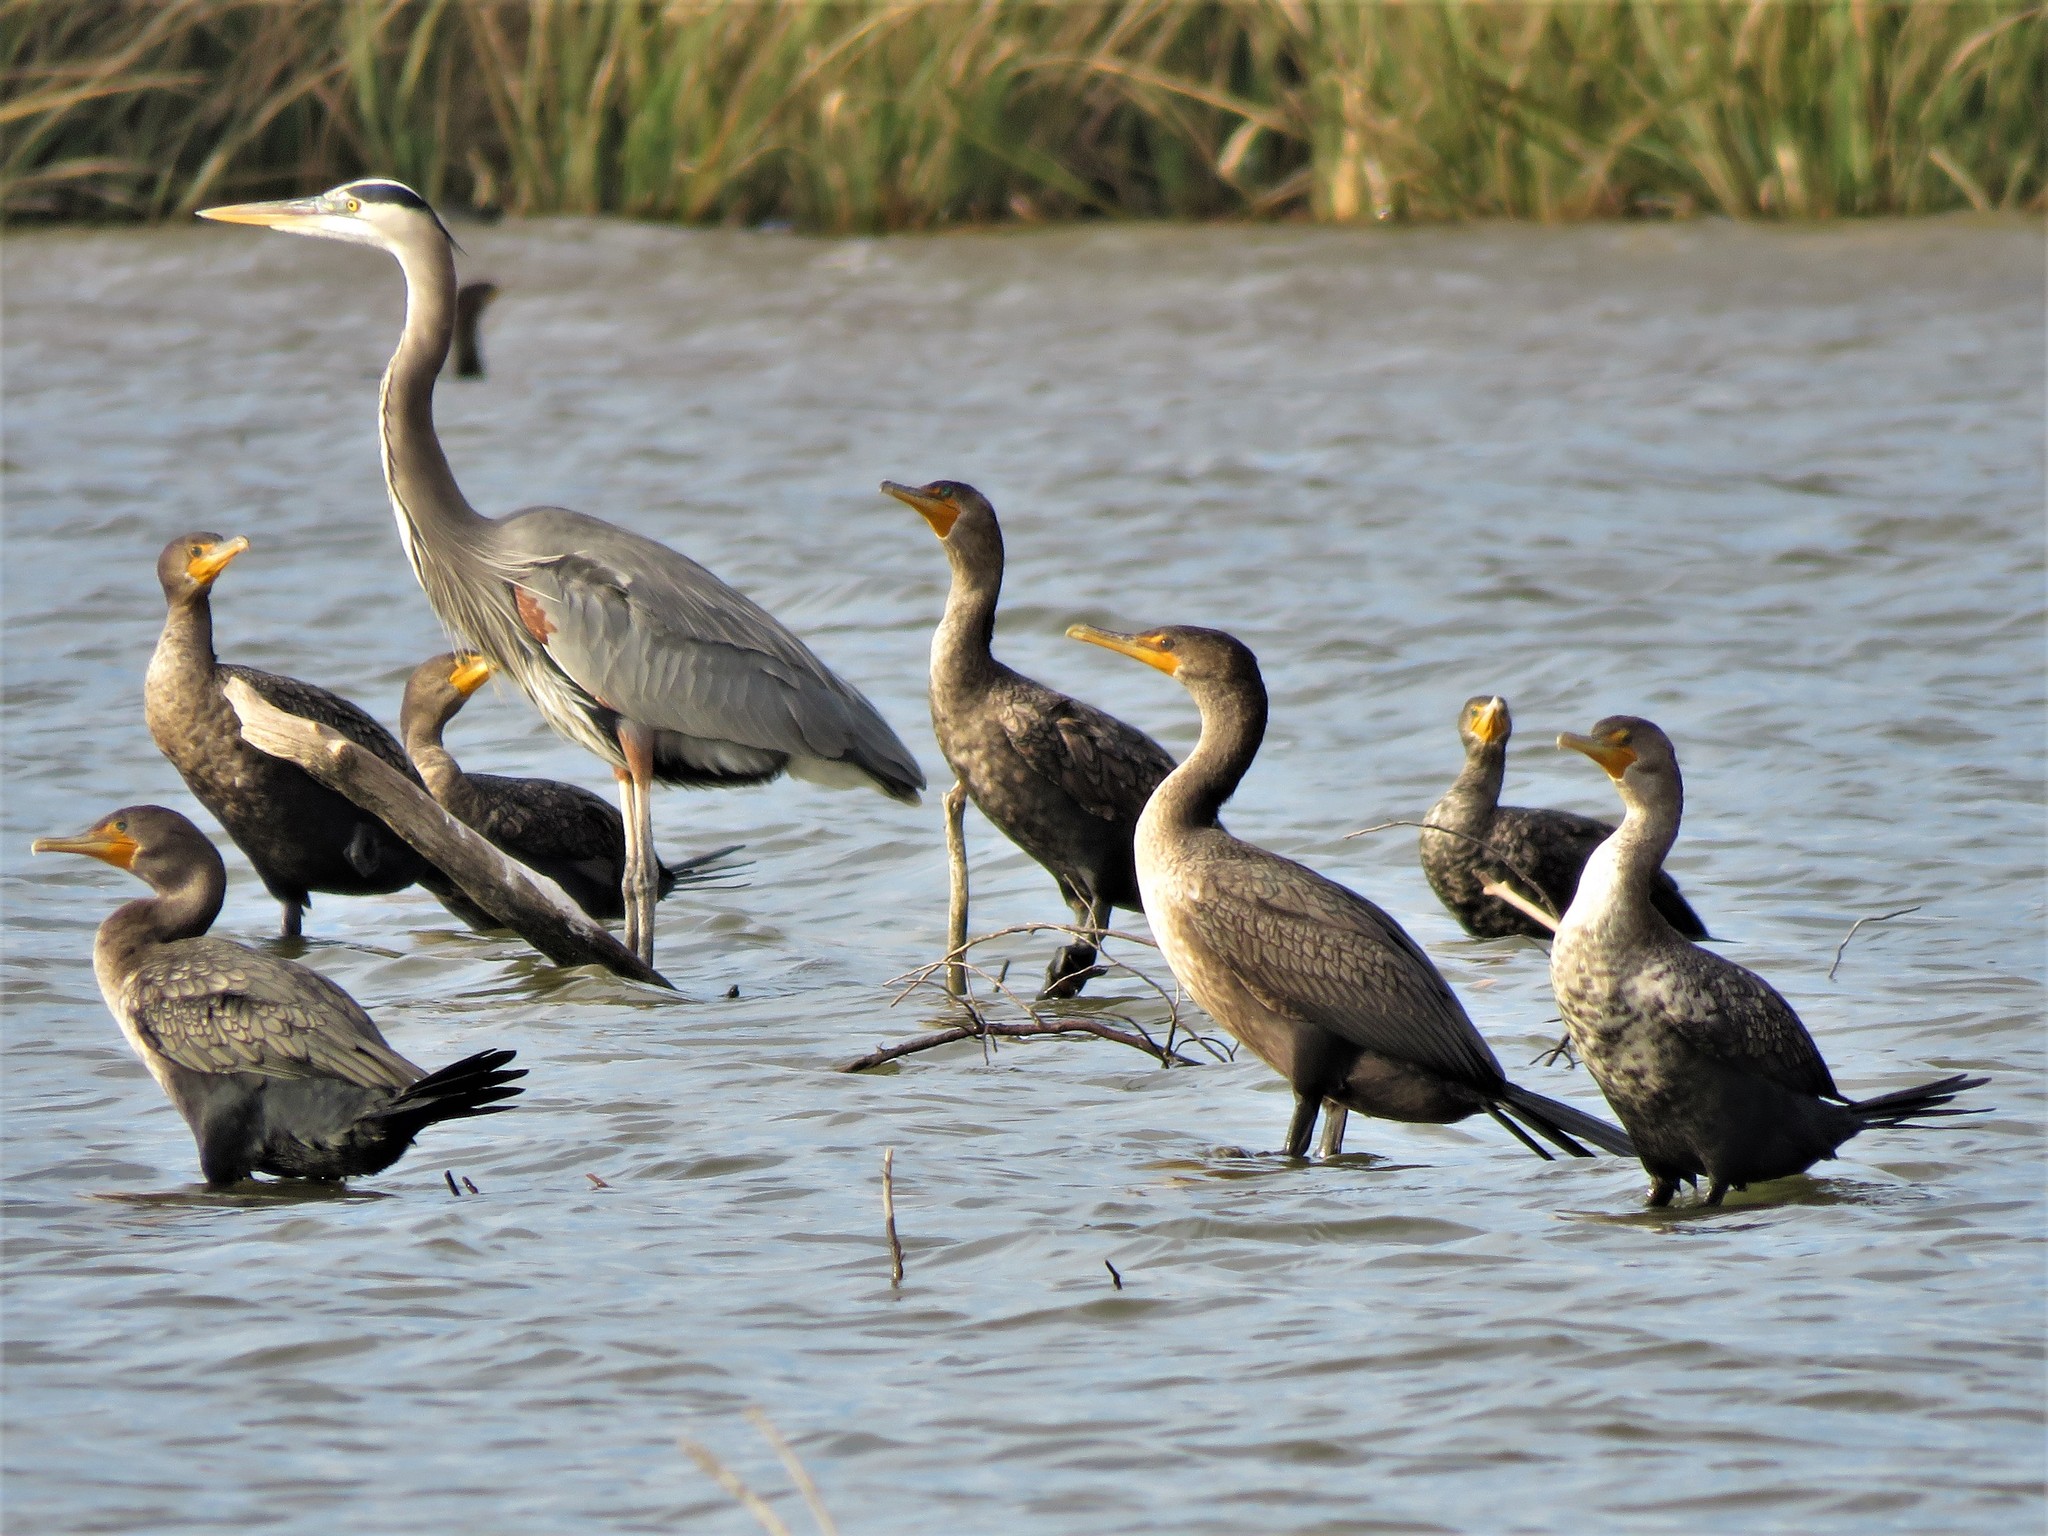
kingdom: Animalia
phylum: Chordata
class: Aves
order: Suliformes
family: Phalacrocoracidae
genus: Phalacrocorax
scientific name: Phalacrocorax auritus
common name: Double-crested cormorant
